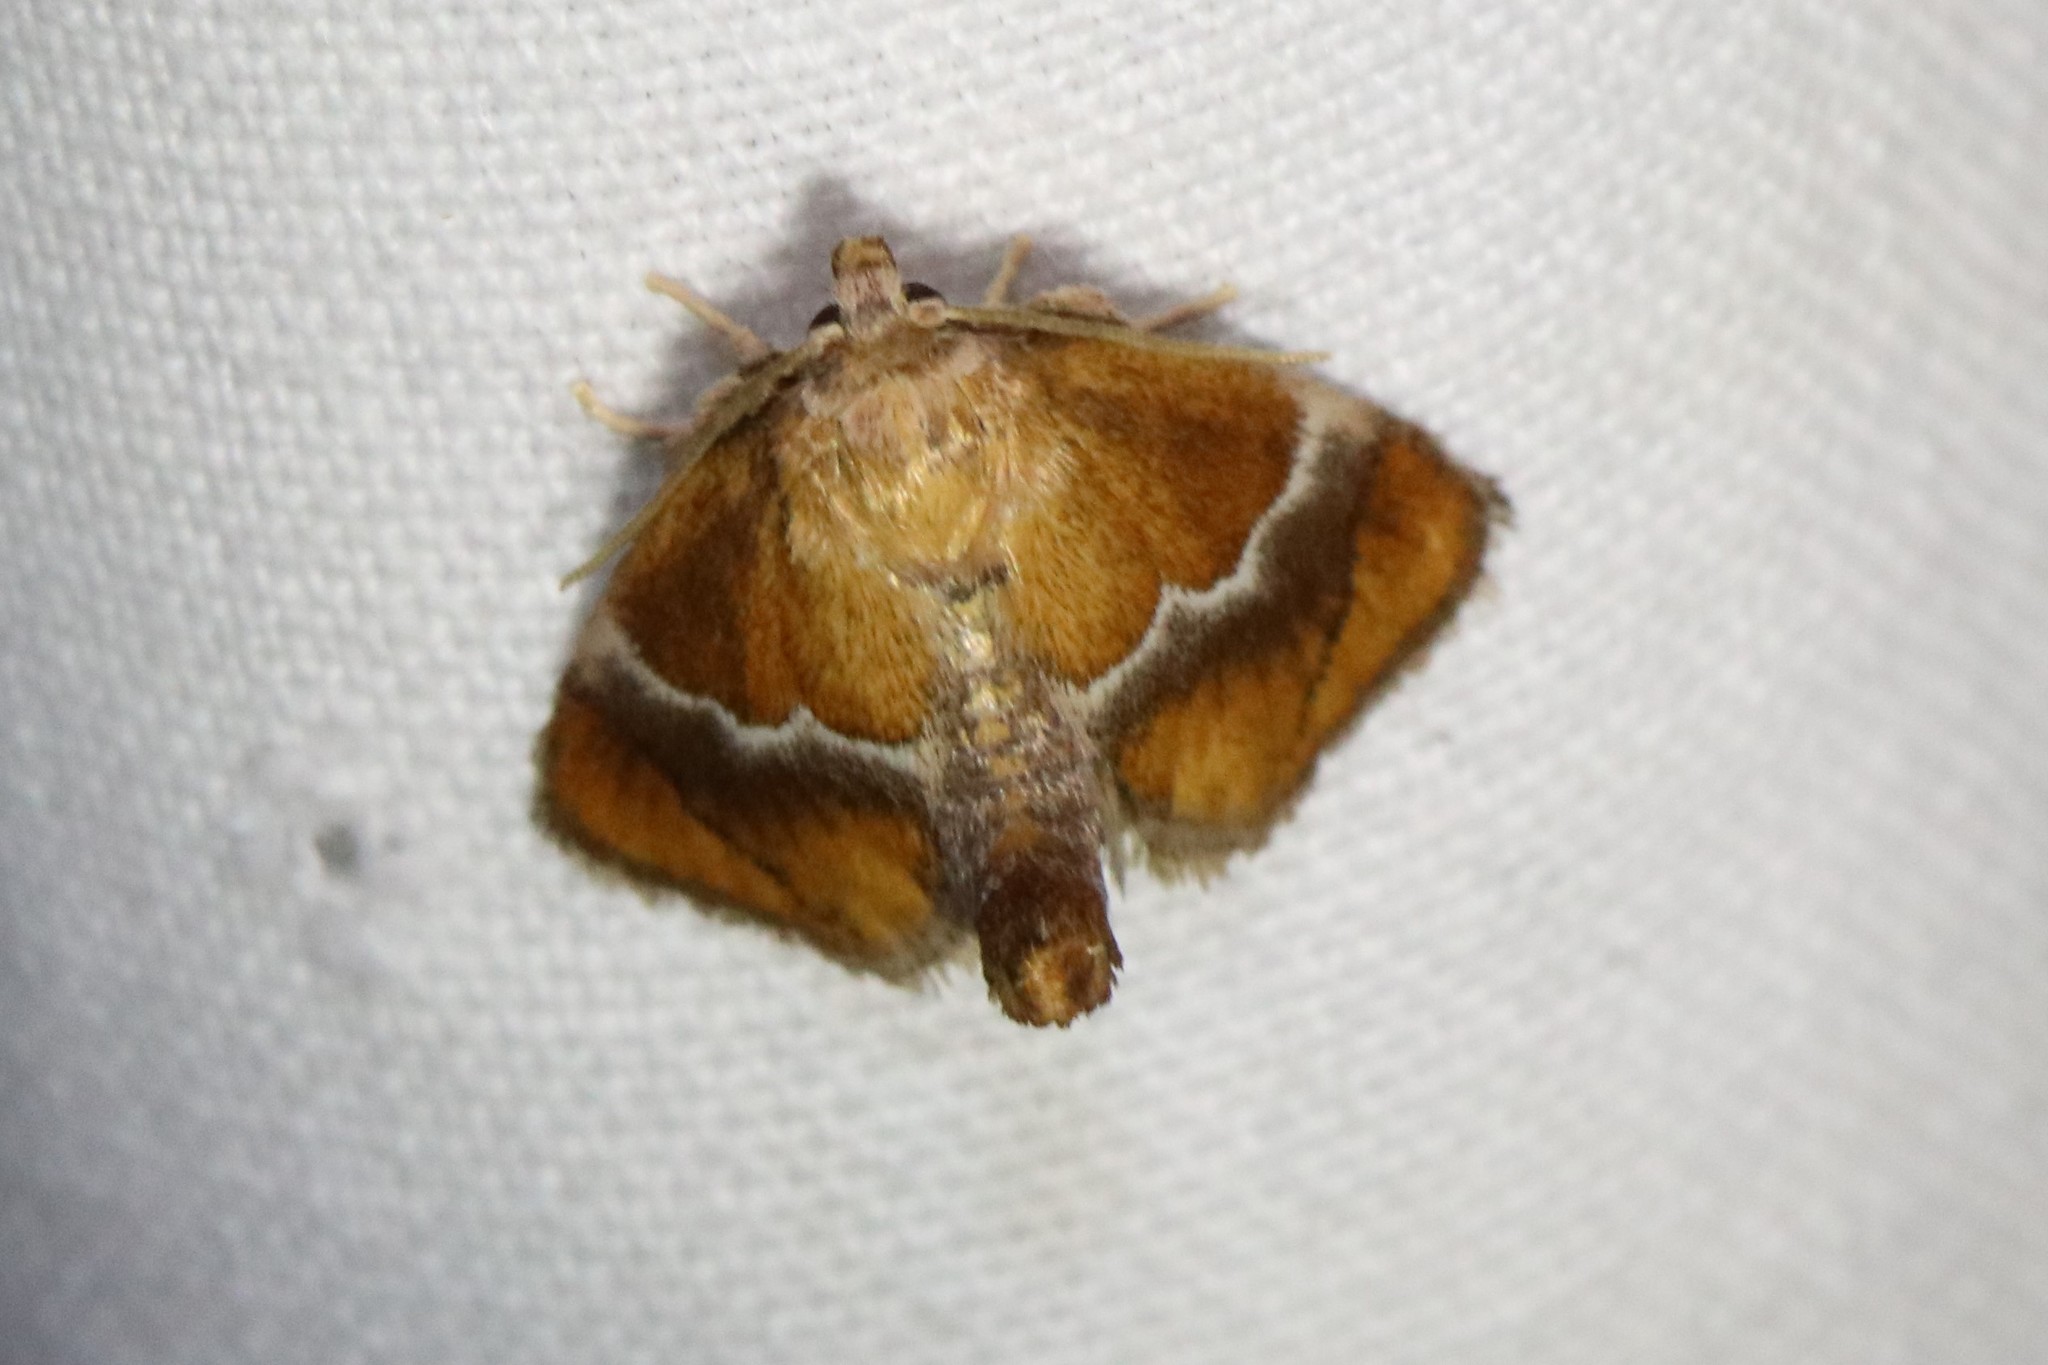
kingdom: Animalia
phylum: Arthropoda
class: Insecta
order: Lepidoptera
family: Limacodidae
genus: Lithacodes
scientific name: Lithacodes fasciola
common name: Yellow-shouldered slug moth
